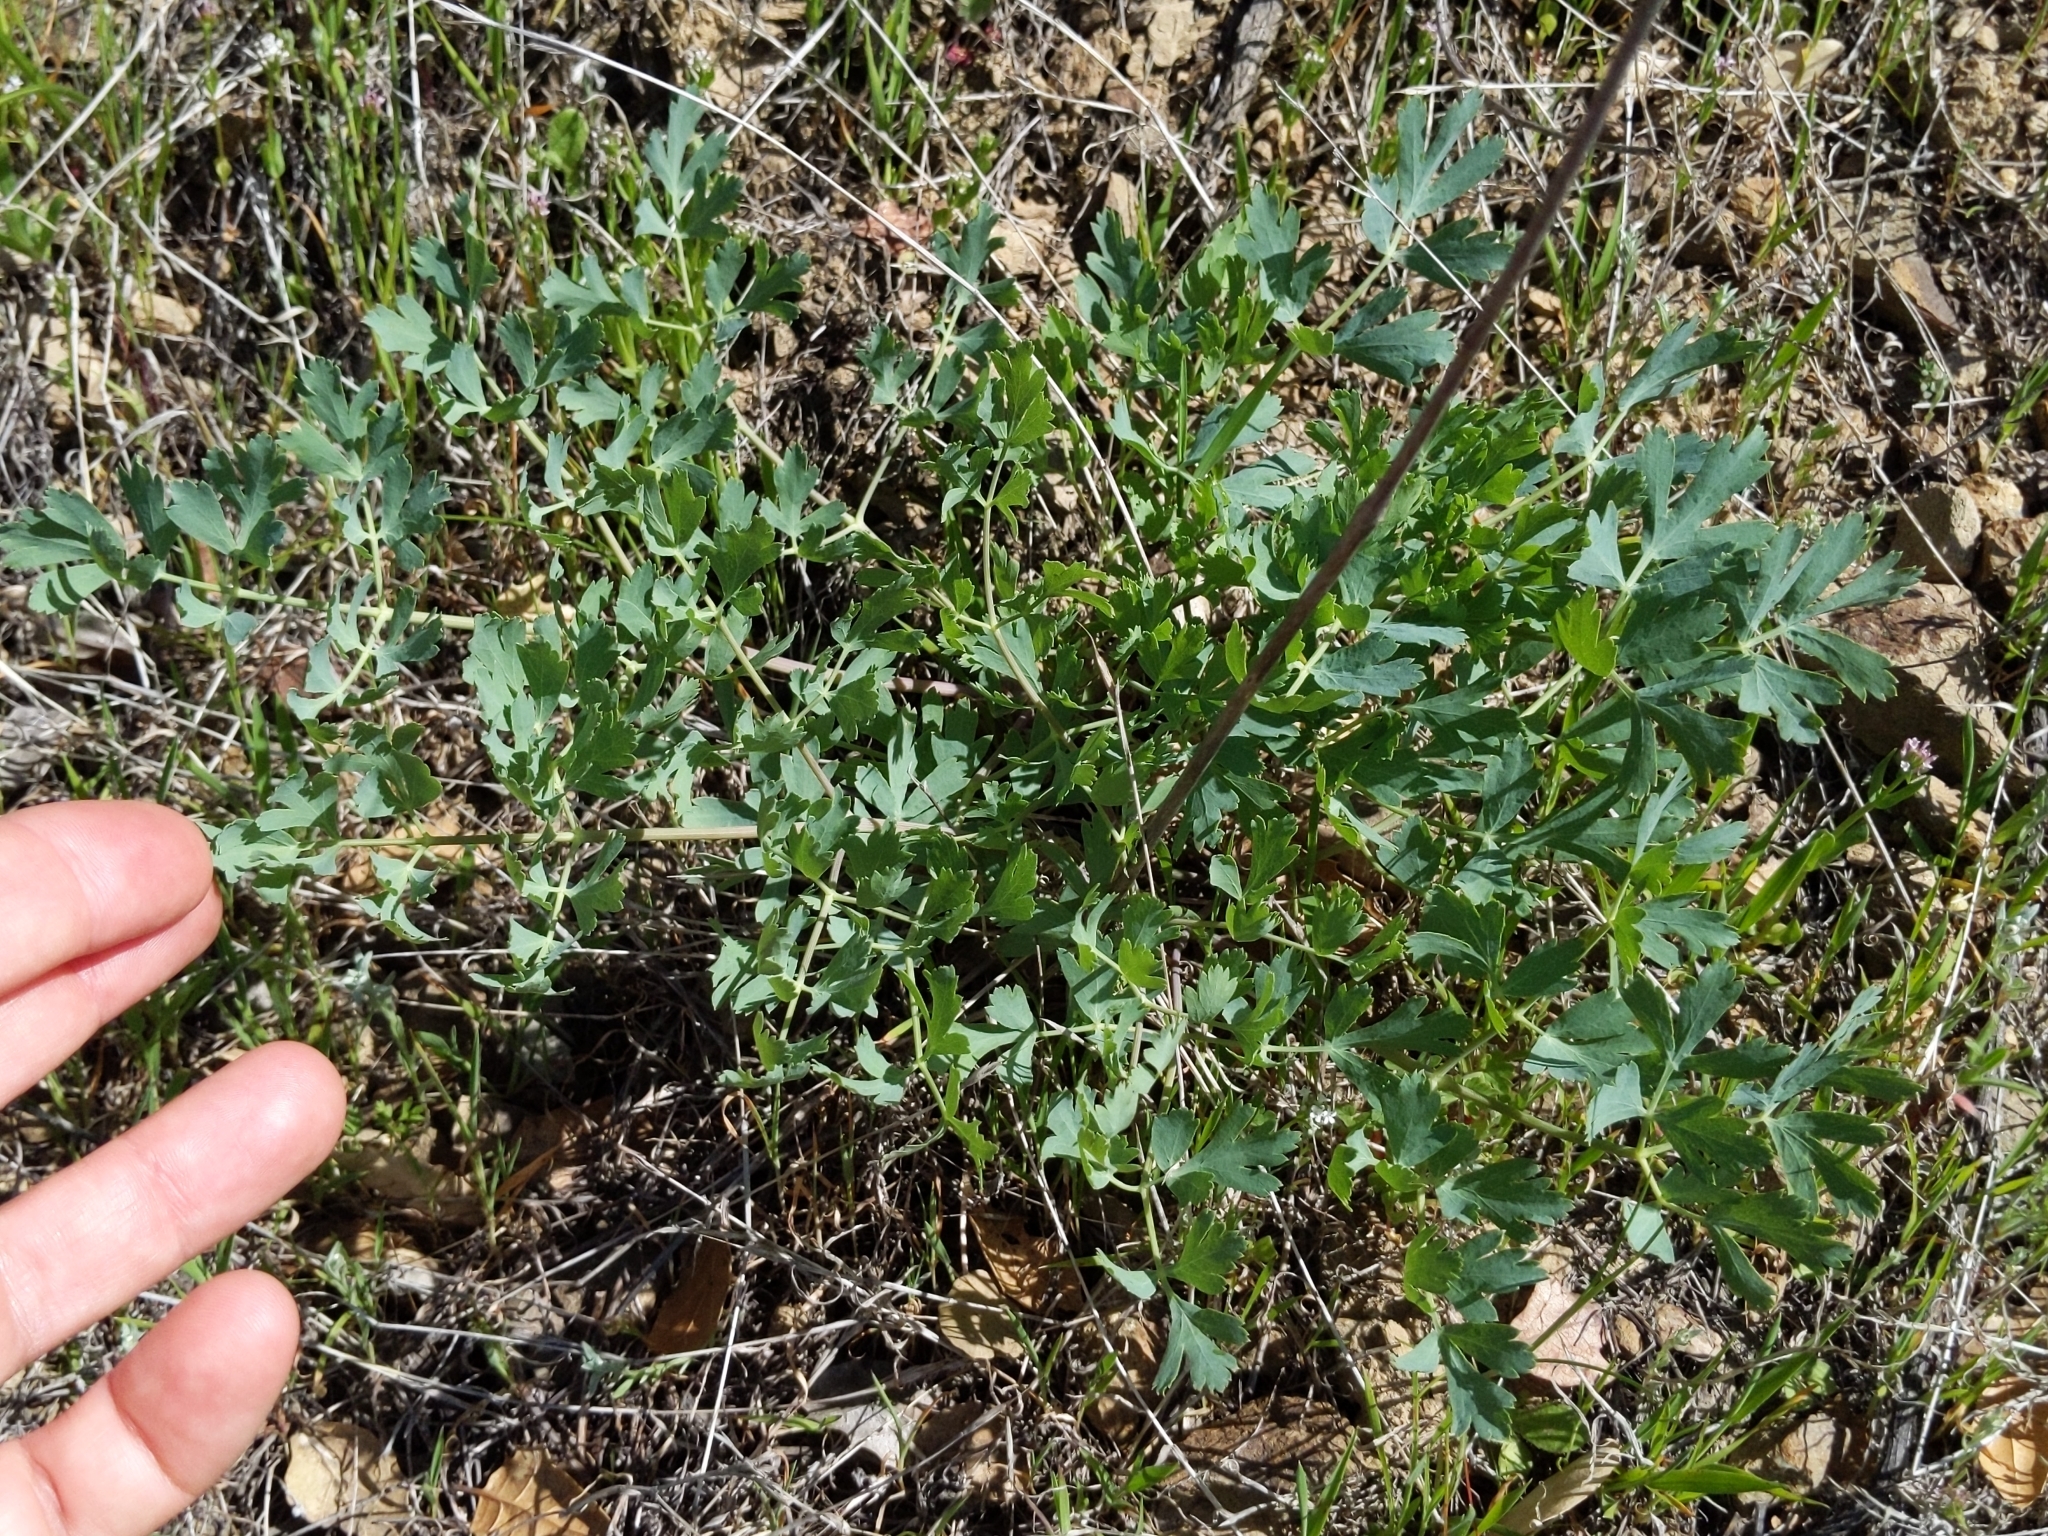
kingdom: Plantae
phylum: Tracheophyta
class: Magnoliopsida
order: Apiales
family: Apiaceae
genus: Lomatium
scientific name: Lomatium californicum
